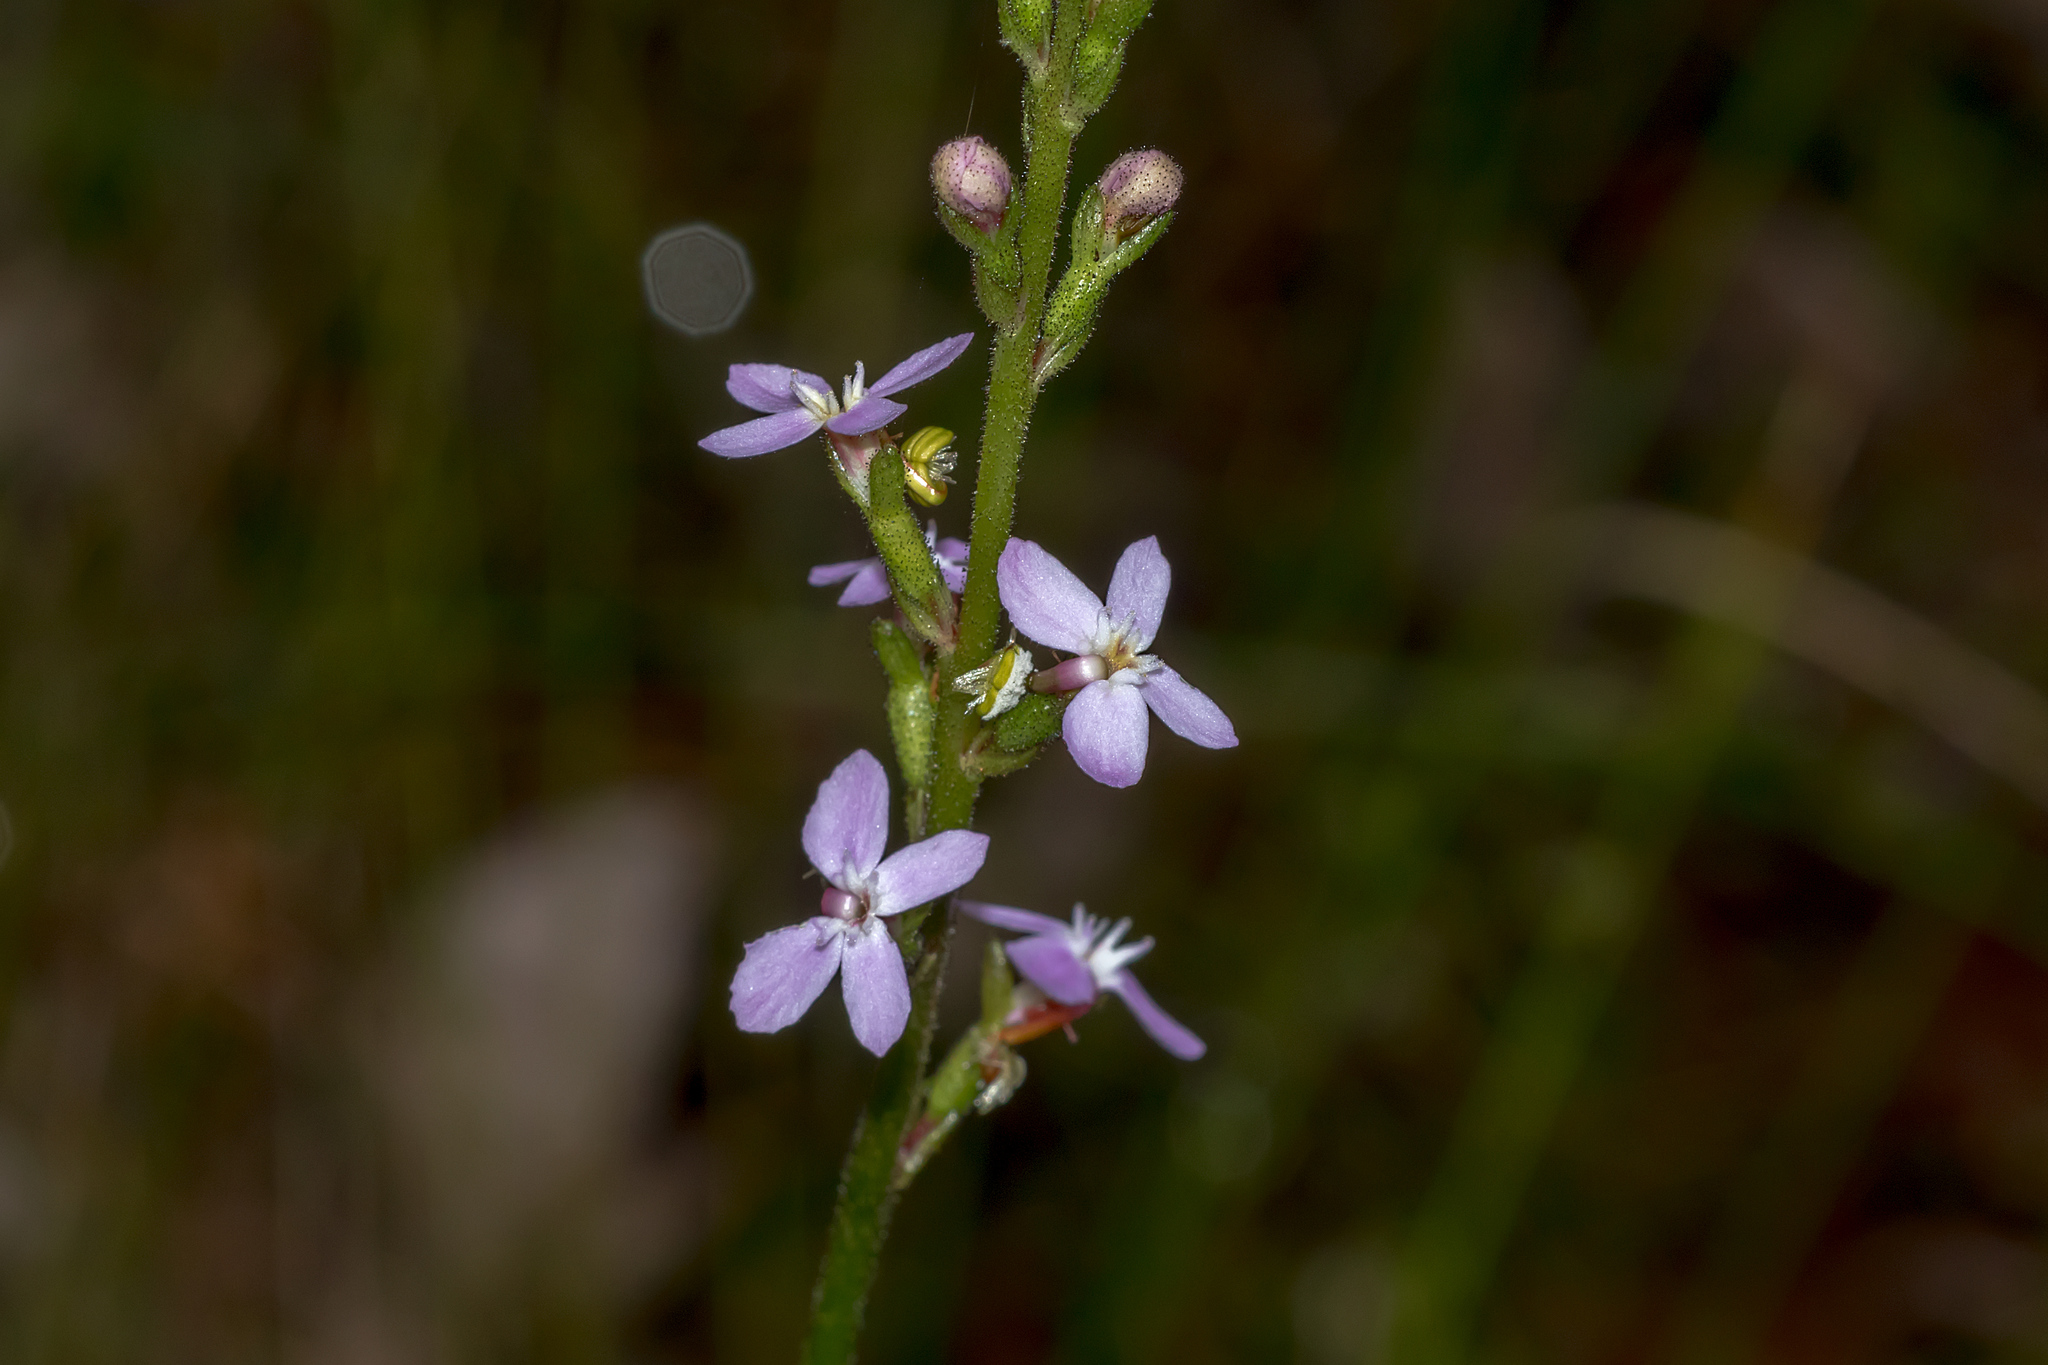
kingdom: Plantae
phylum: Tracheophyta
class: Magnoliopsida
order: Asterales
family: Stylidiaceae
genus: Stylidium
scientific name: Stylidium armeria
